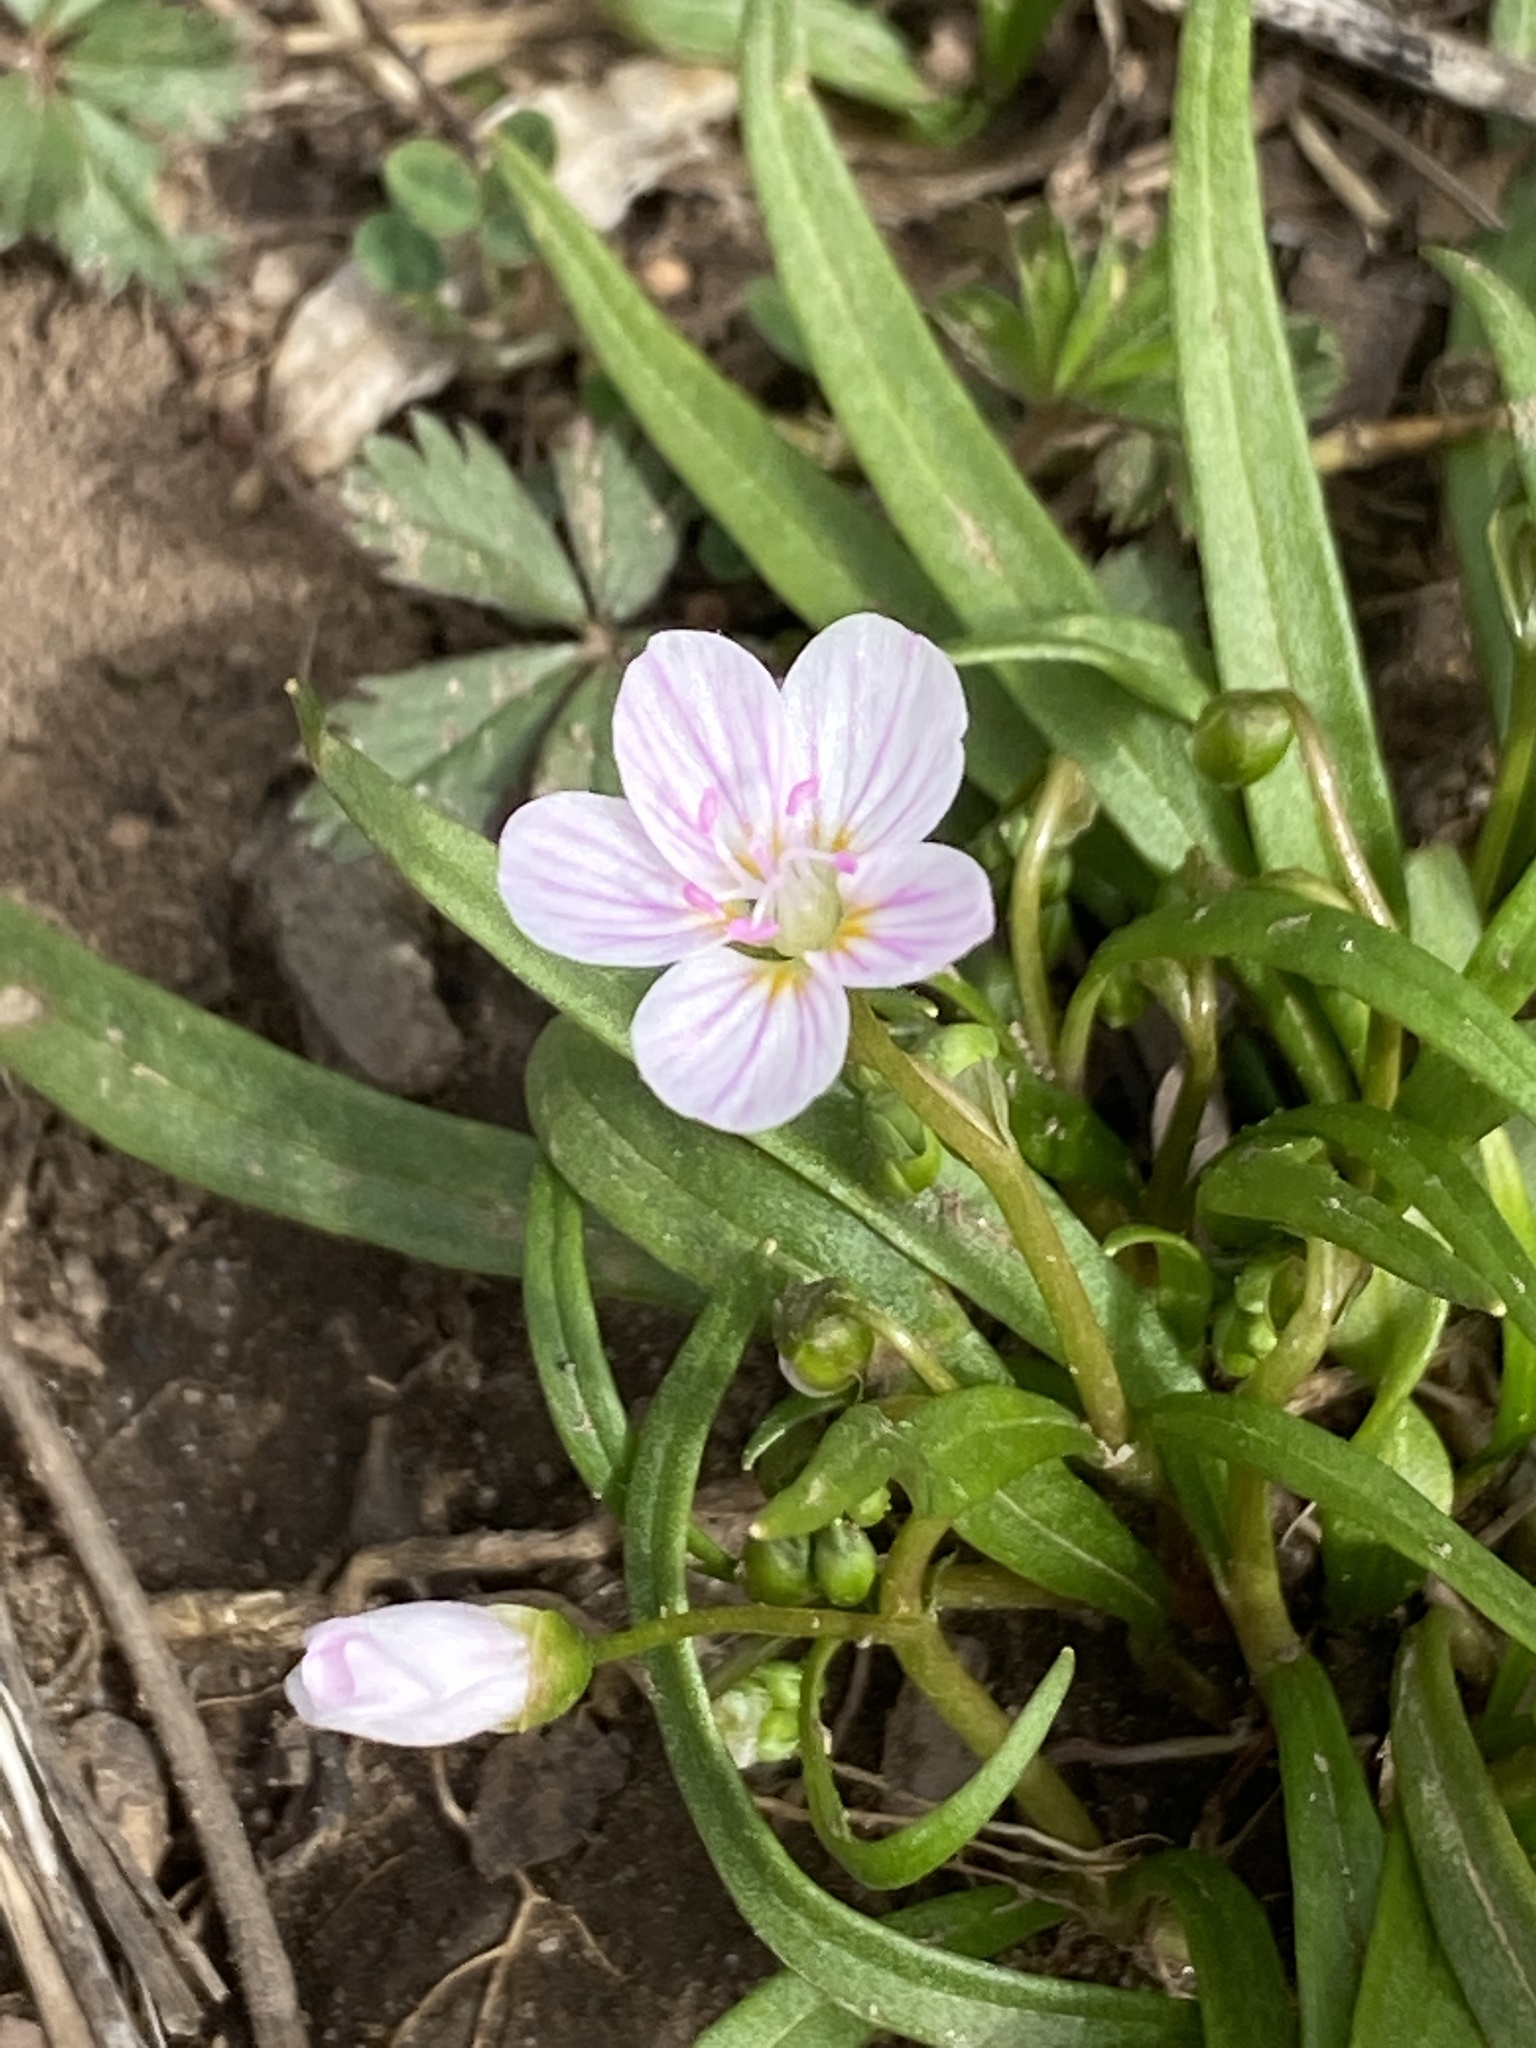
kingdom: Plantae
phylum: Tracheophyta
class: Magnoliopsida
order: Caryophyllales
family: Montiaceae
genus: Claytonia
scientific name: Claytonia virginica
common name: Virginia springbeauty
